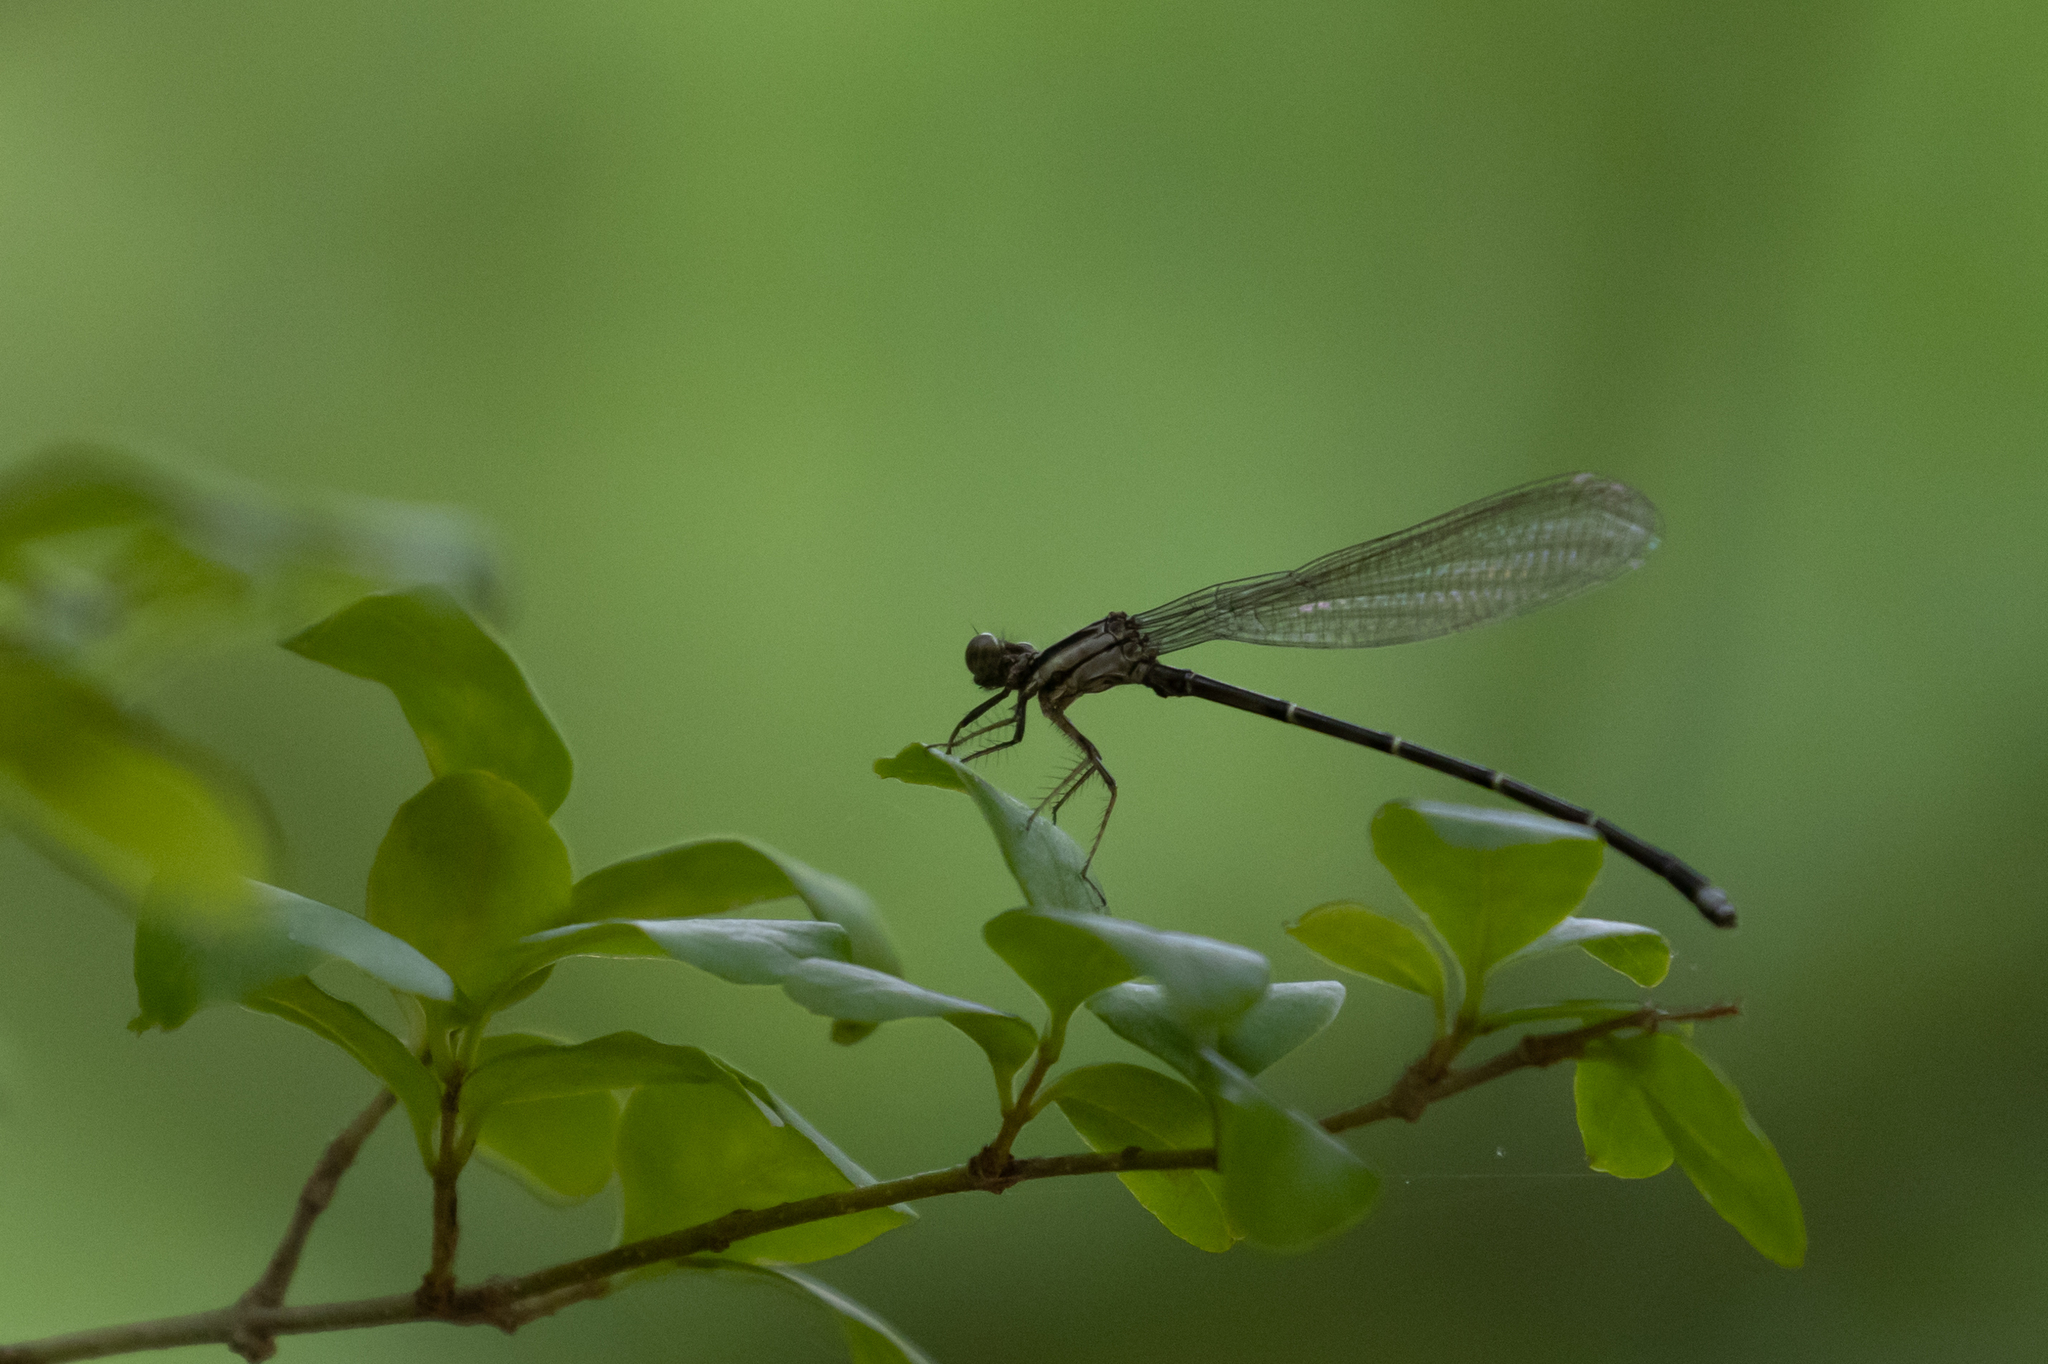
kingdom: Animalia
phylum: Arthropoda
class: Insecta
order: Odonata
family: Coenagrionidae
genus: Argia
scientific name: Argia tibialis
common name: Blue-tipped dancer
